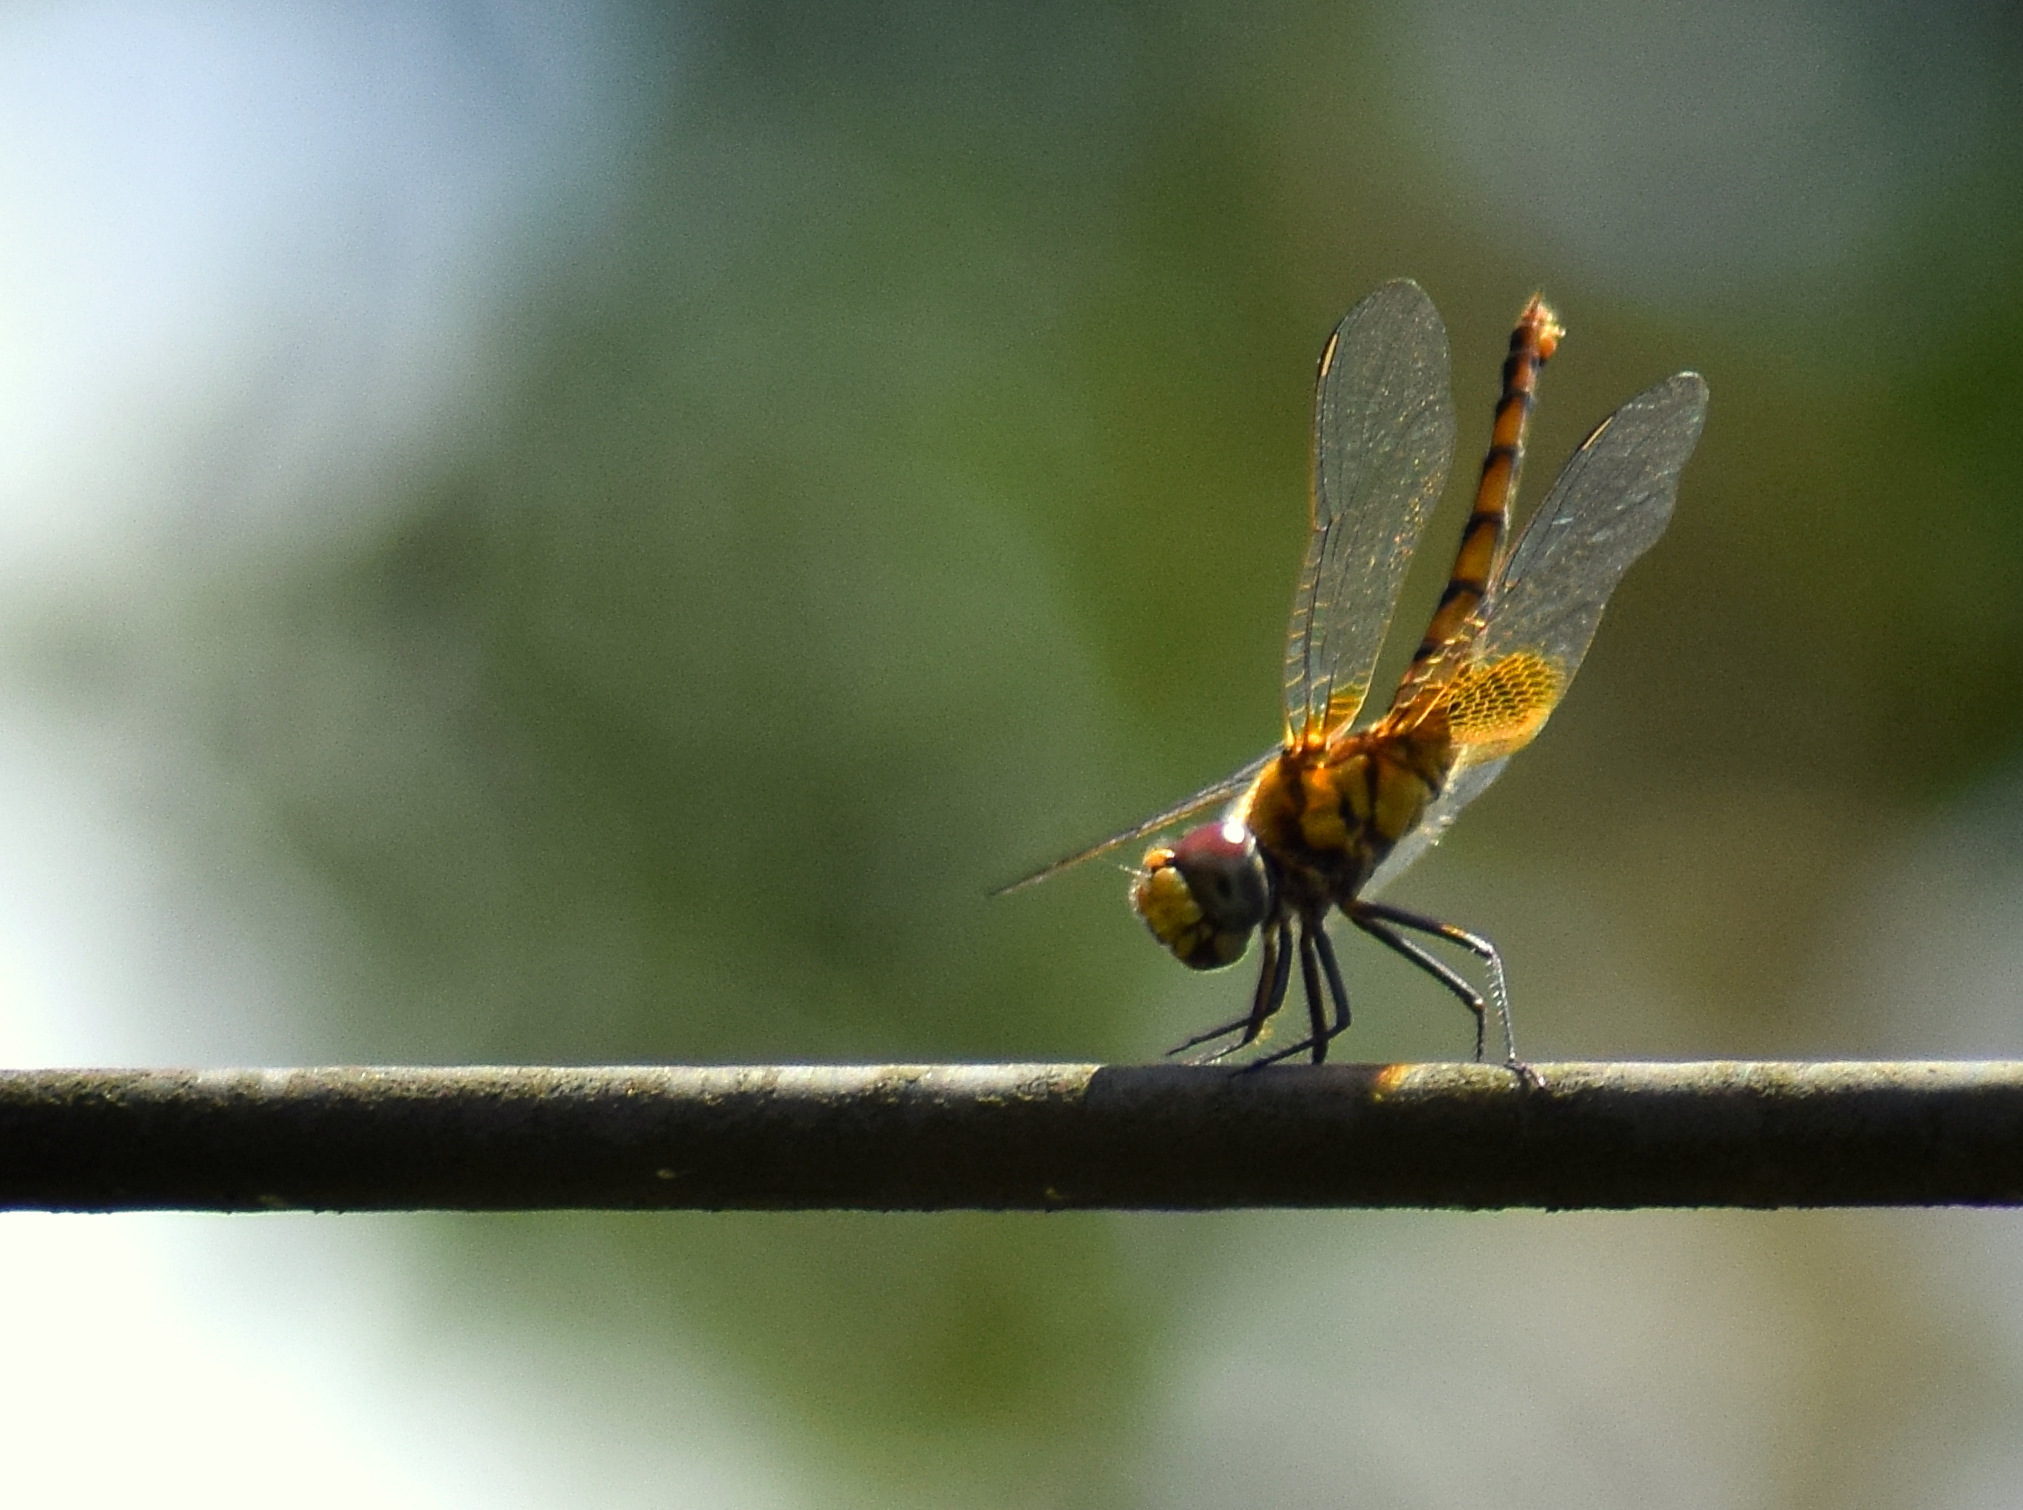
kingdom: Animalia
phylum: Arthropoda
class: Insecta
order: Odonata
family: Libellulidae
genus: Urothemis
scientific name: Urothemis signata
